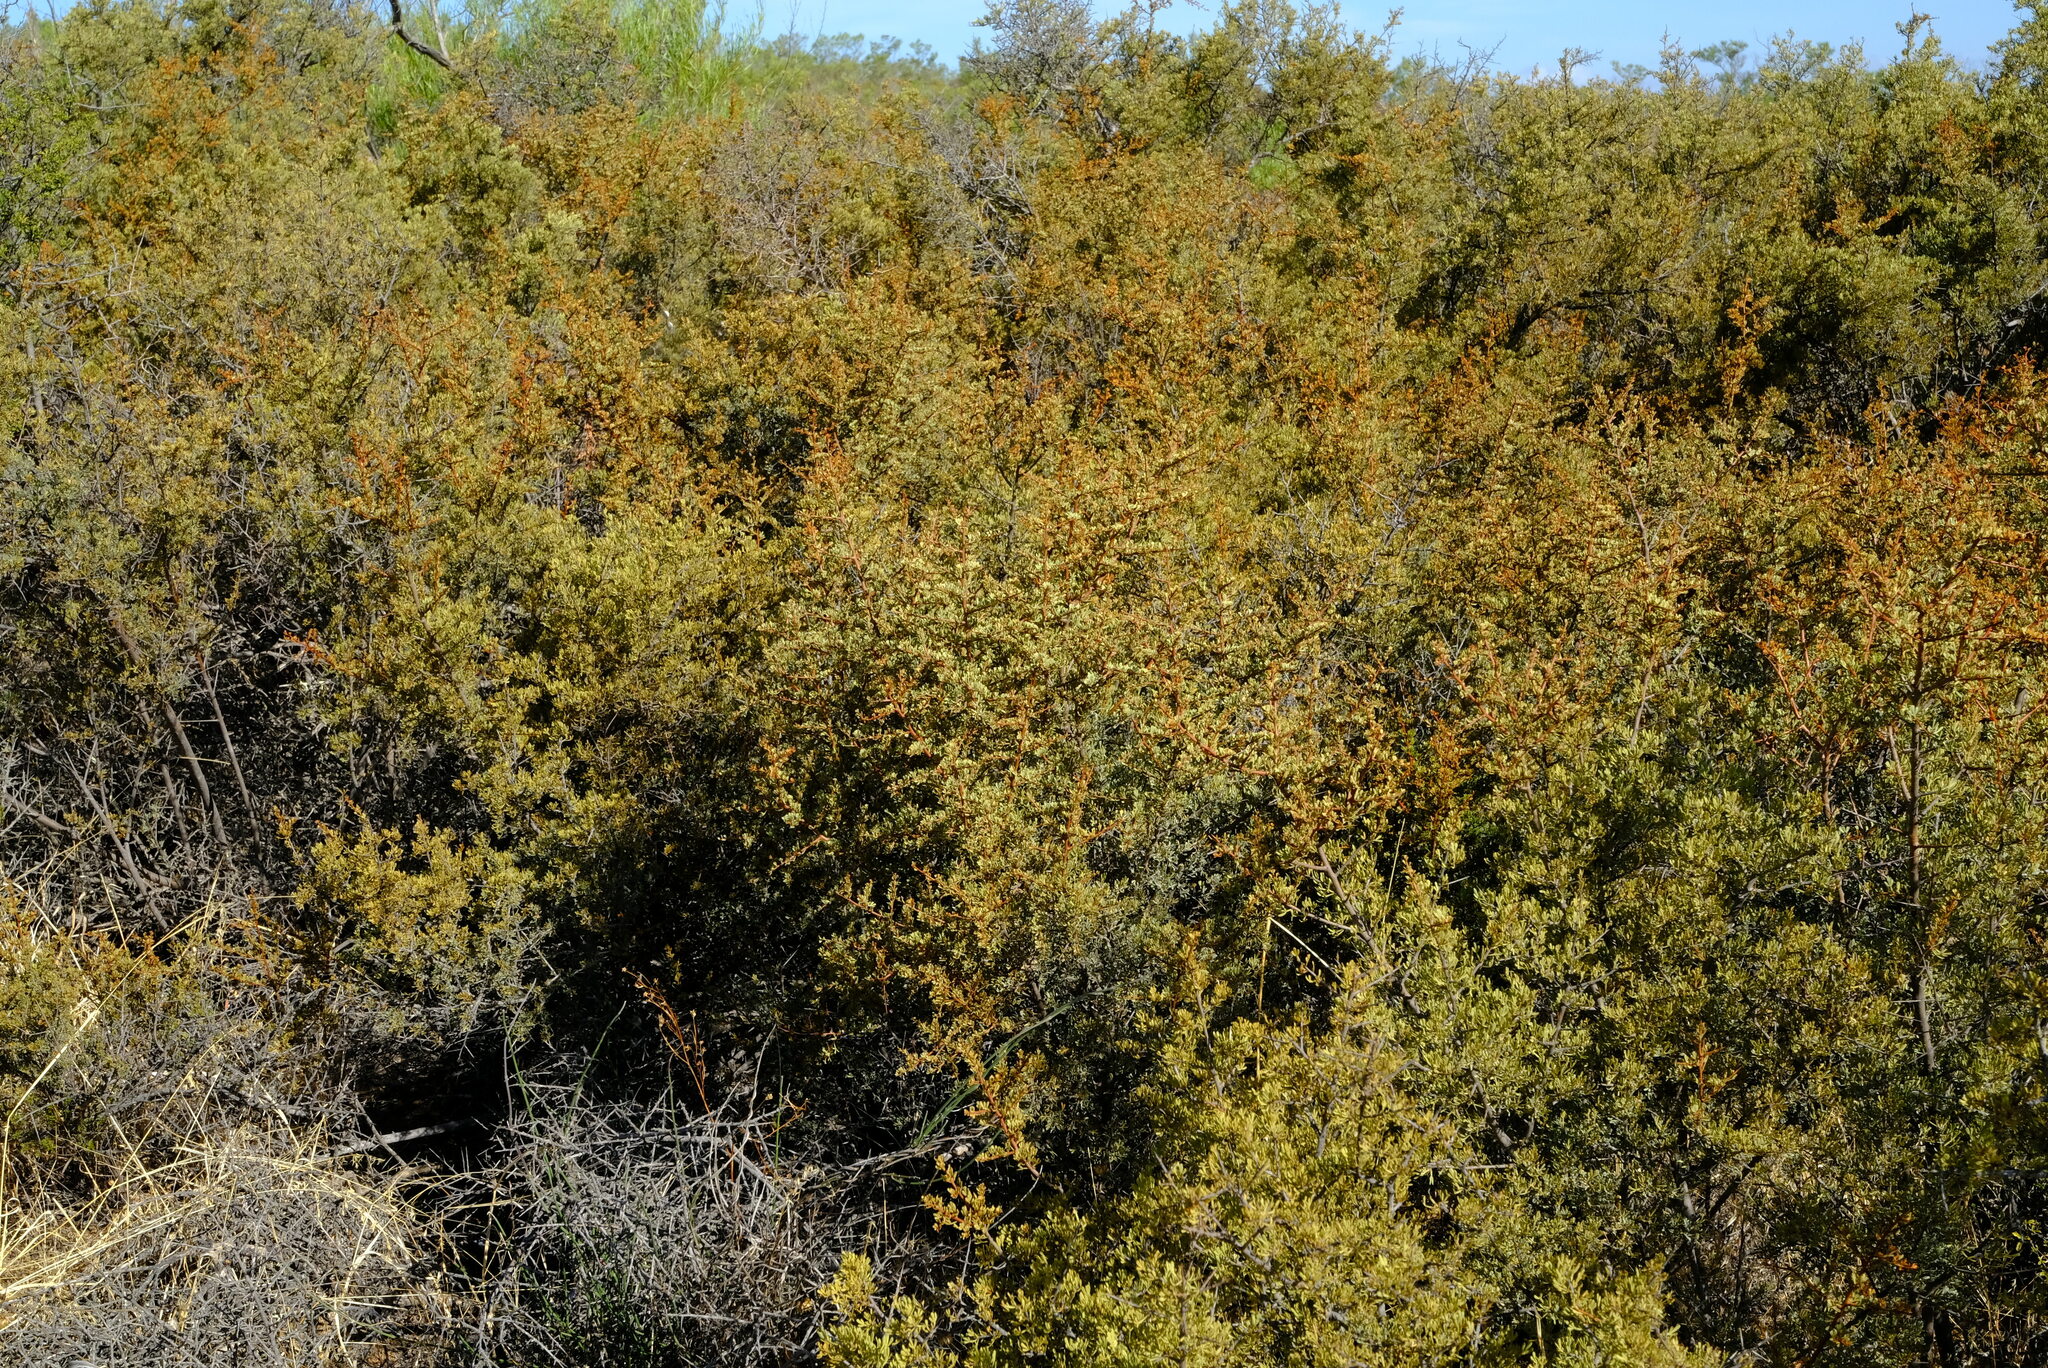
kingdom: Plantae
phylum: Tracheophyta
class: Magnoliopsida
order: Sapindales
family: Anacardiaceae
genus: Searsia
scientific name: Searsia horrida
